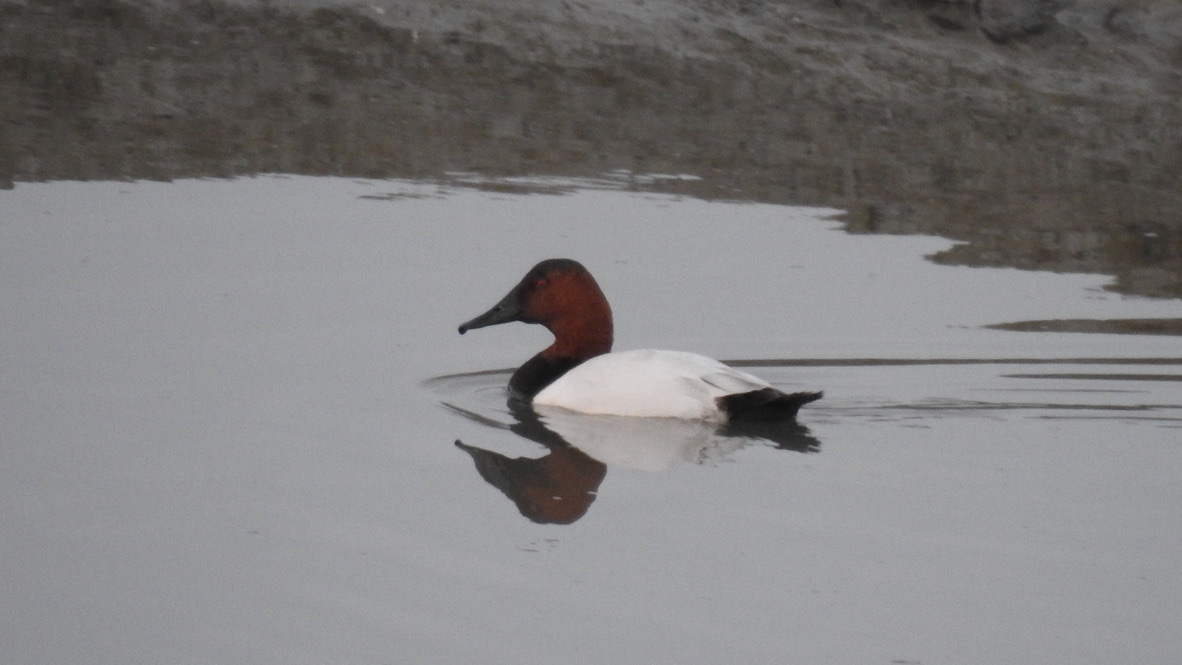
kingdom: Animalia
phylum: Chordata
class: Aves
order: Anseriformes
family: Anatidae
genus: Aythya
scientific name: Aythya valisineria
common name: Canvasback
